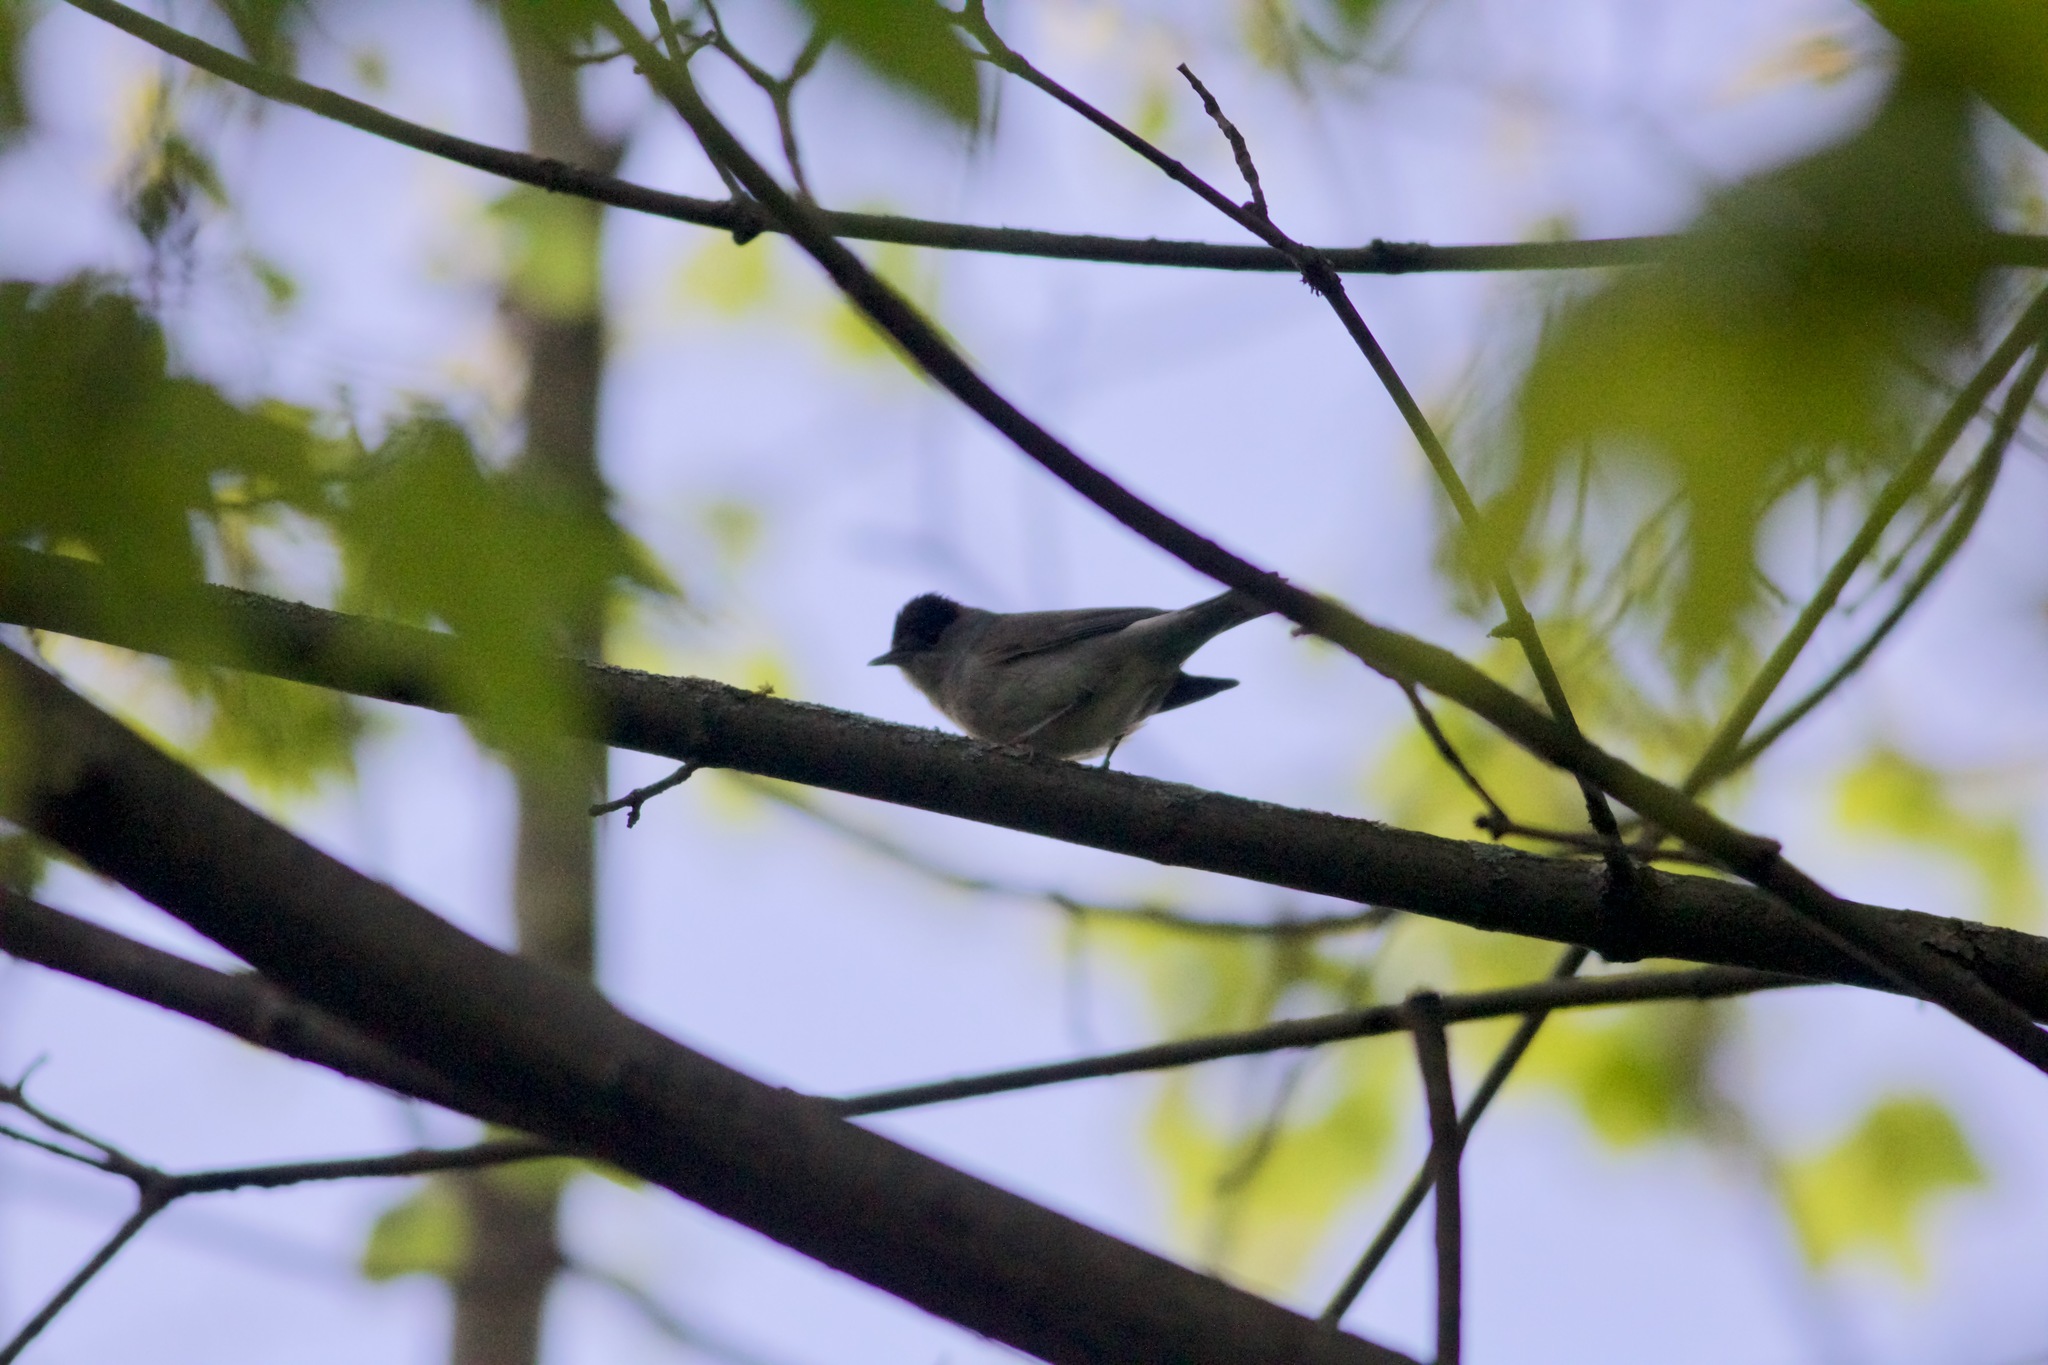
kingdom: Animalia
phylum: Chordata
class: Aves
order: Passeriformes
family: Sylviidae
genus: Sylvia
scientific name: Sylvia atricapilla
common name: Eurasian blackcap
